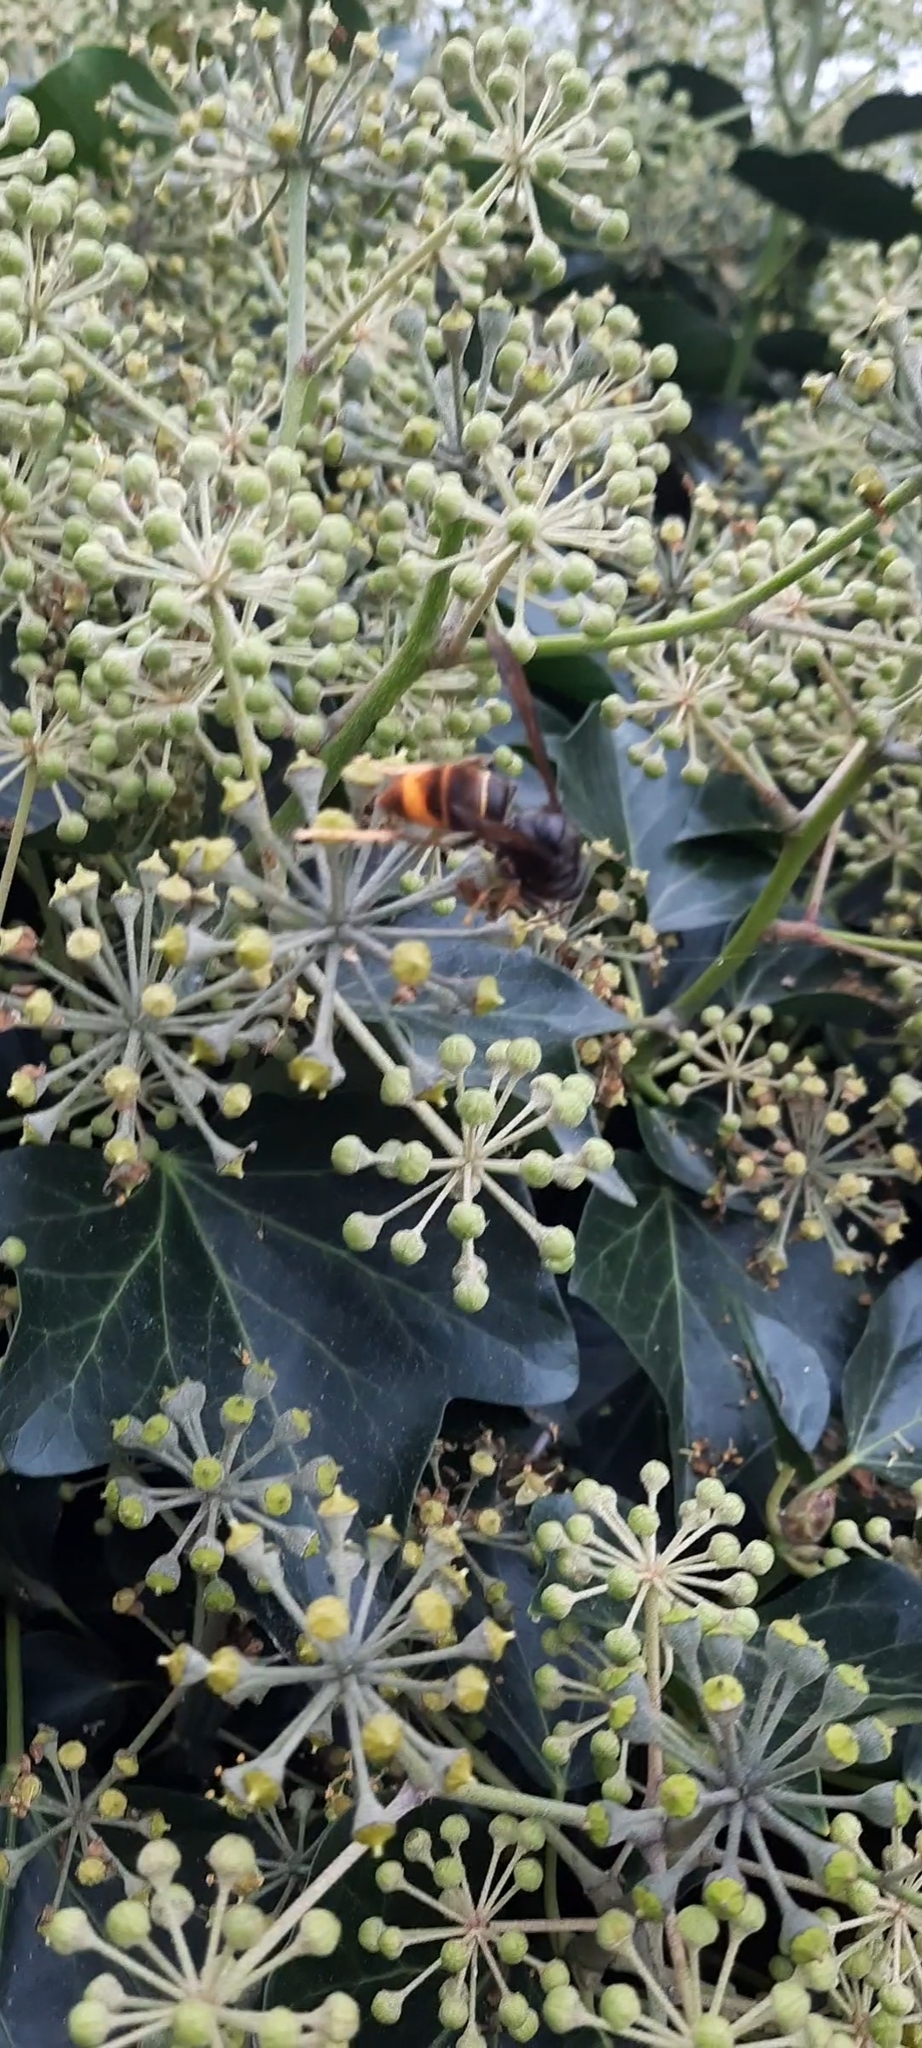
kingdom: Animalia
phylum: Arthropoda
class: Insecta
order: Hymenoptera
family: Vespidae
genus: Vespa
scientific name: Vespa velutina
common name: Asian hornet
